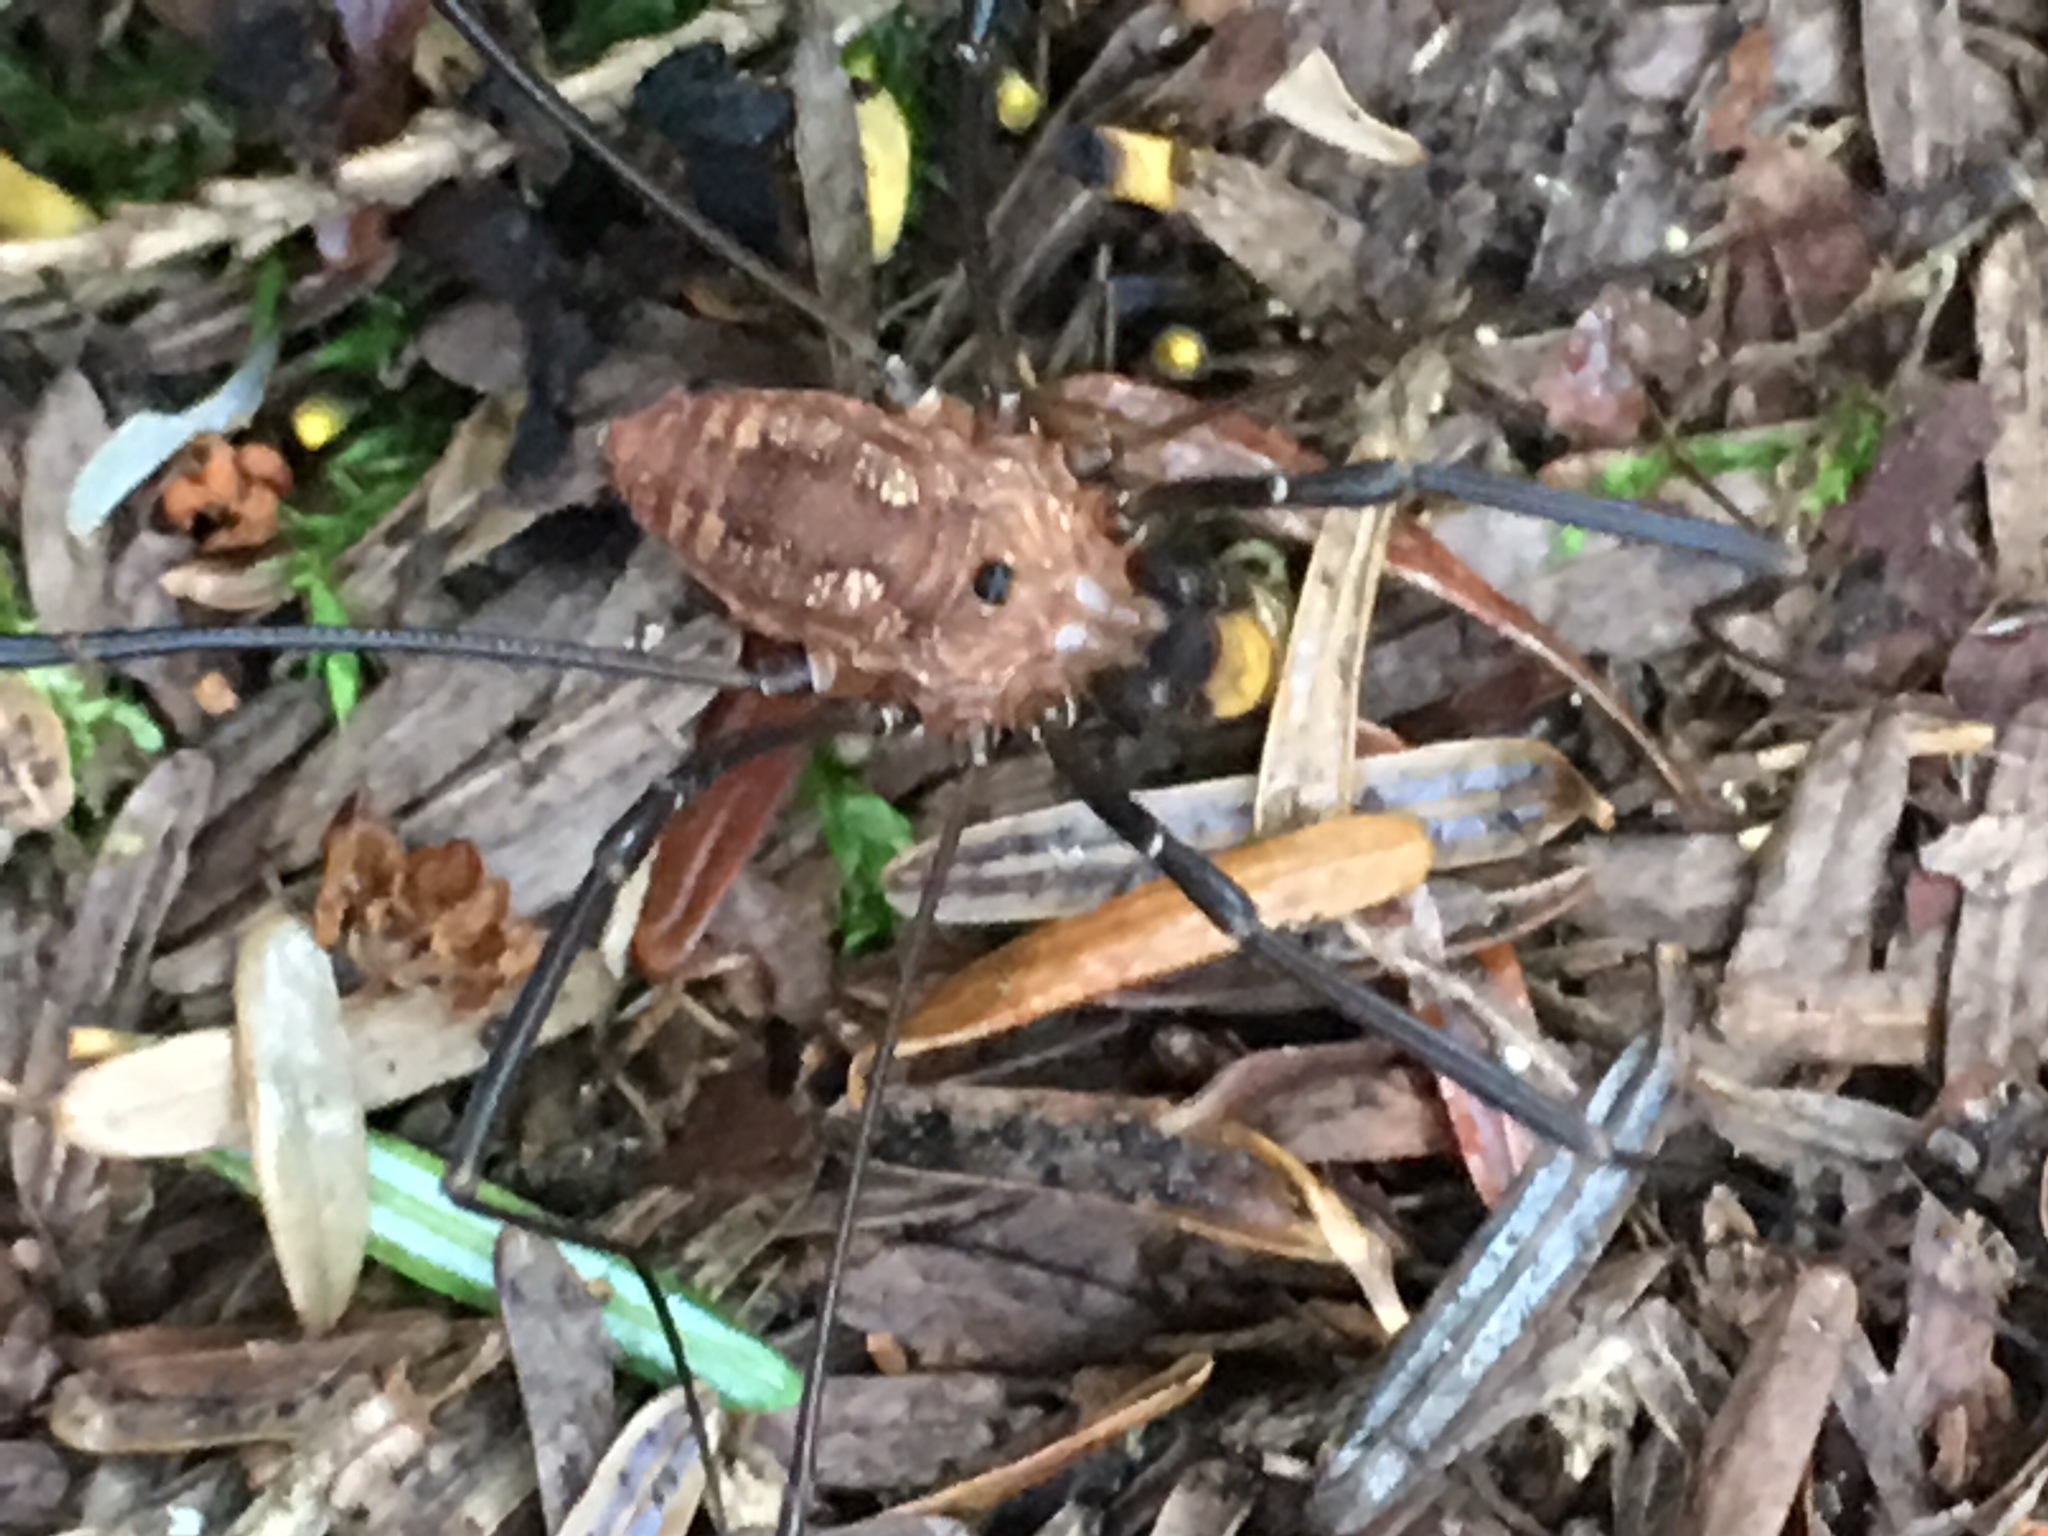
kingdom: Animalia
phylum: Arthropoda
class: Arachnida
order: Opiliones
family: Sclerosomatidae
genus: Leiobunum
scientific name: Leiobunum calcar
